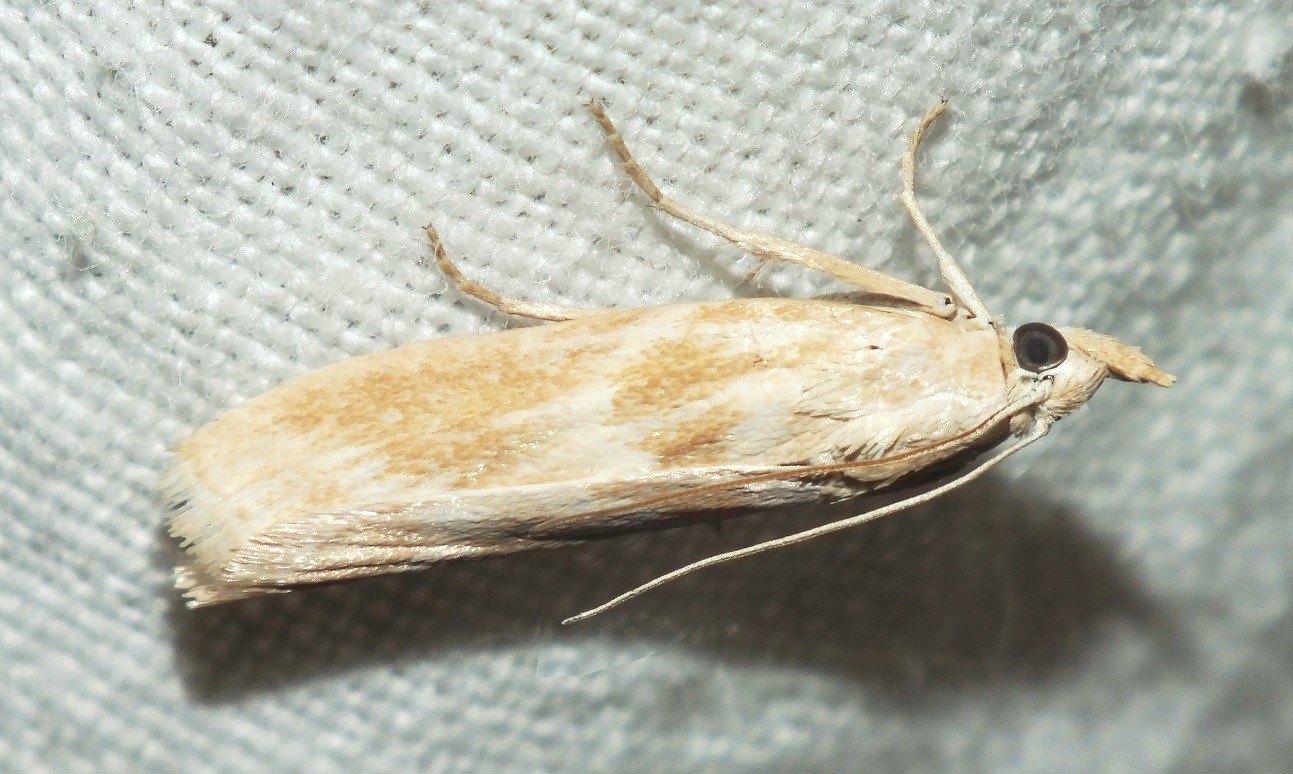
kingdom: Animalia
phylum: Arthropoda
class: Insecta
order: Lepidoptera
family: Pyralidae
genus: Bradyrrhoa
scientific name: Bradyrrhoa gilveolella
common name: Pyralid moth
